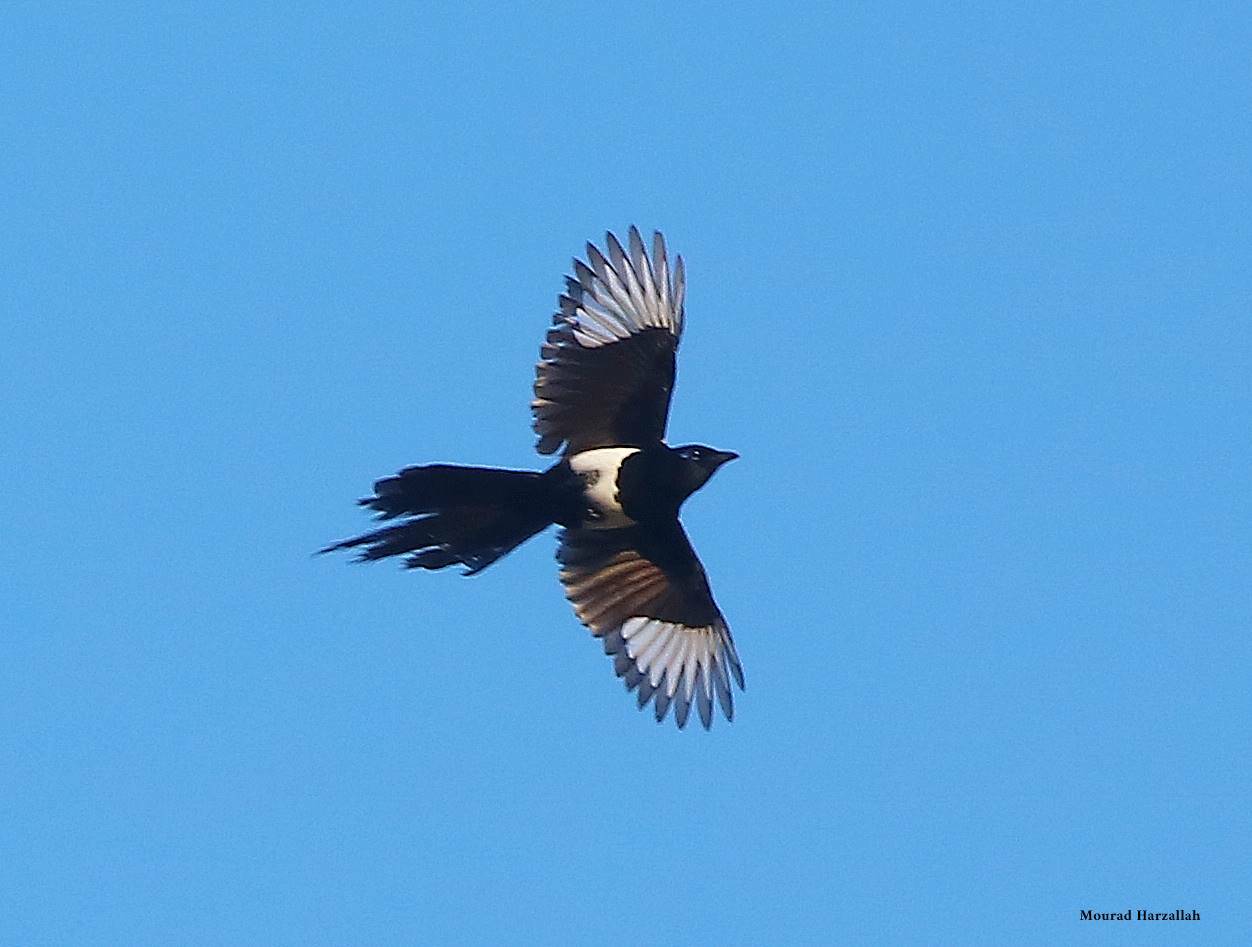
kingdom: Animalia
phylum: Chordata
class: Aves
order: Passeriformes
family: Corvidae
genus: Pica
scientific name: Pica mauritanica
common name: Maghreb magpie
